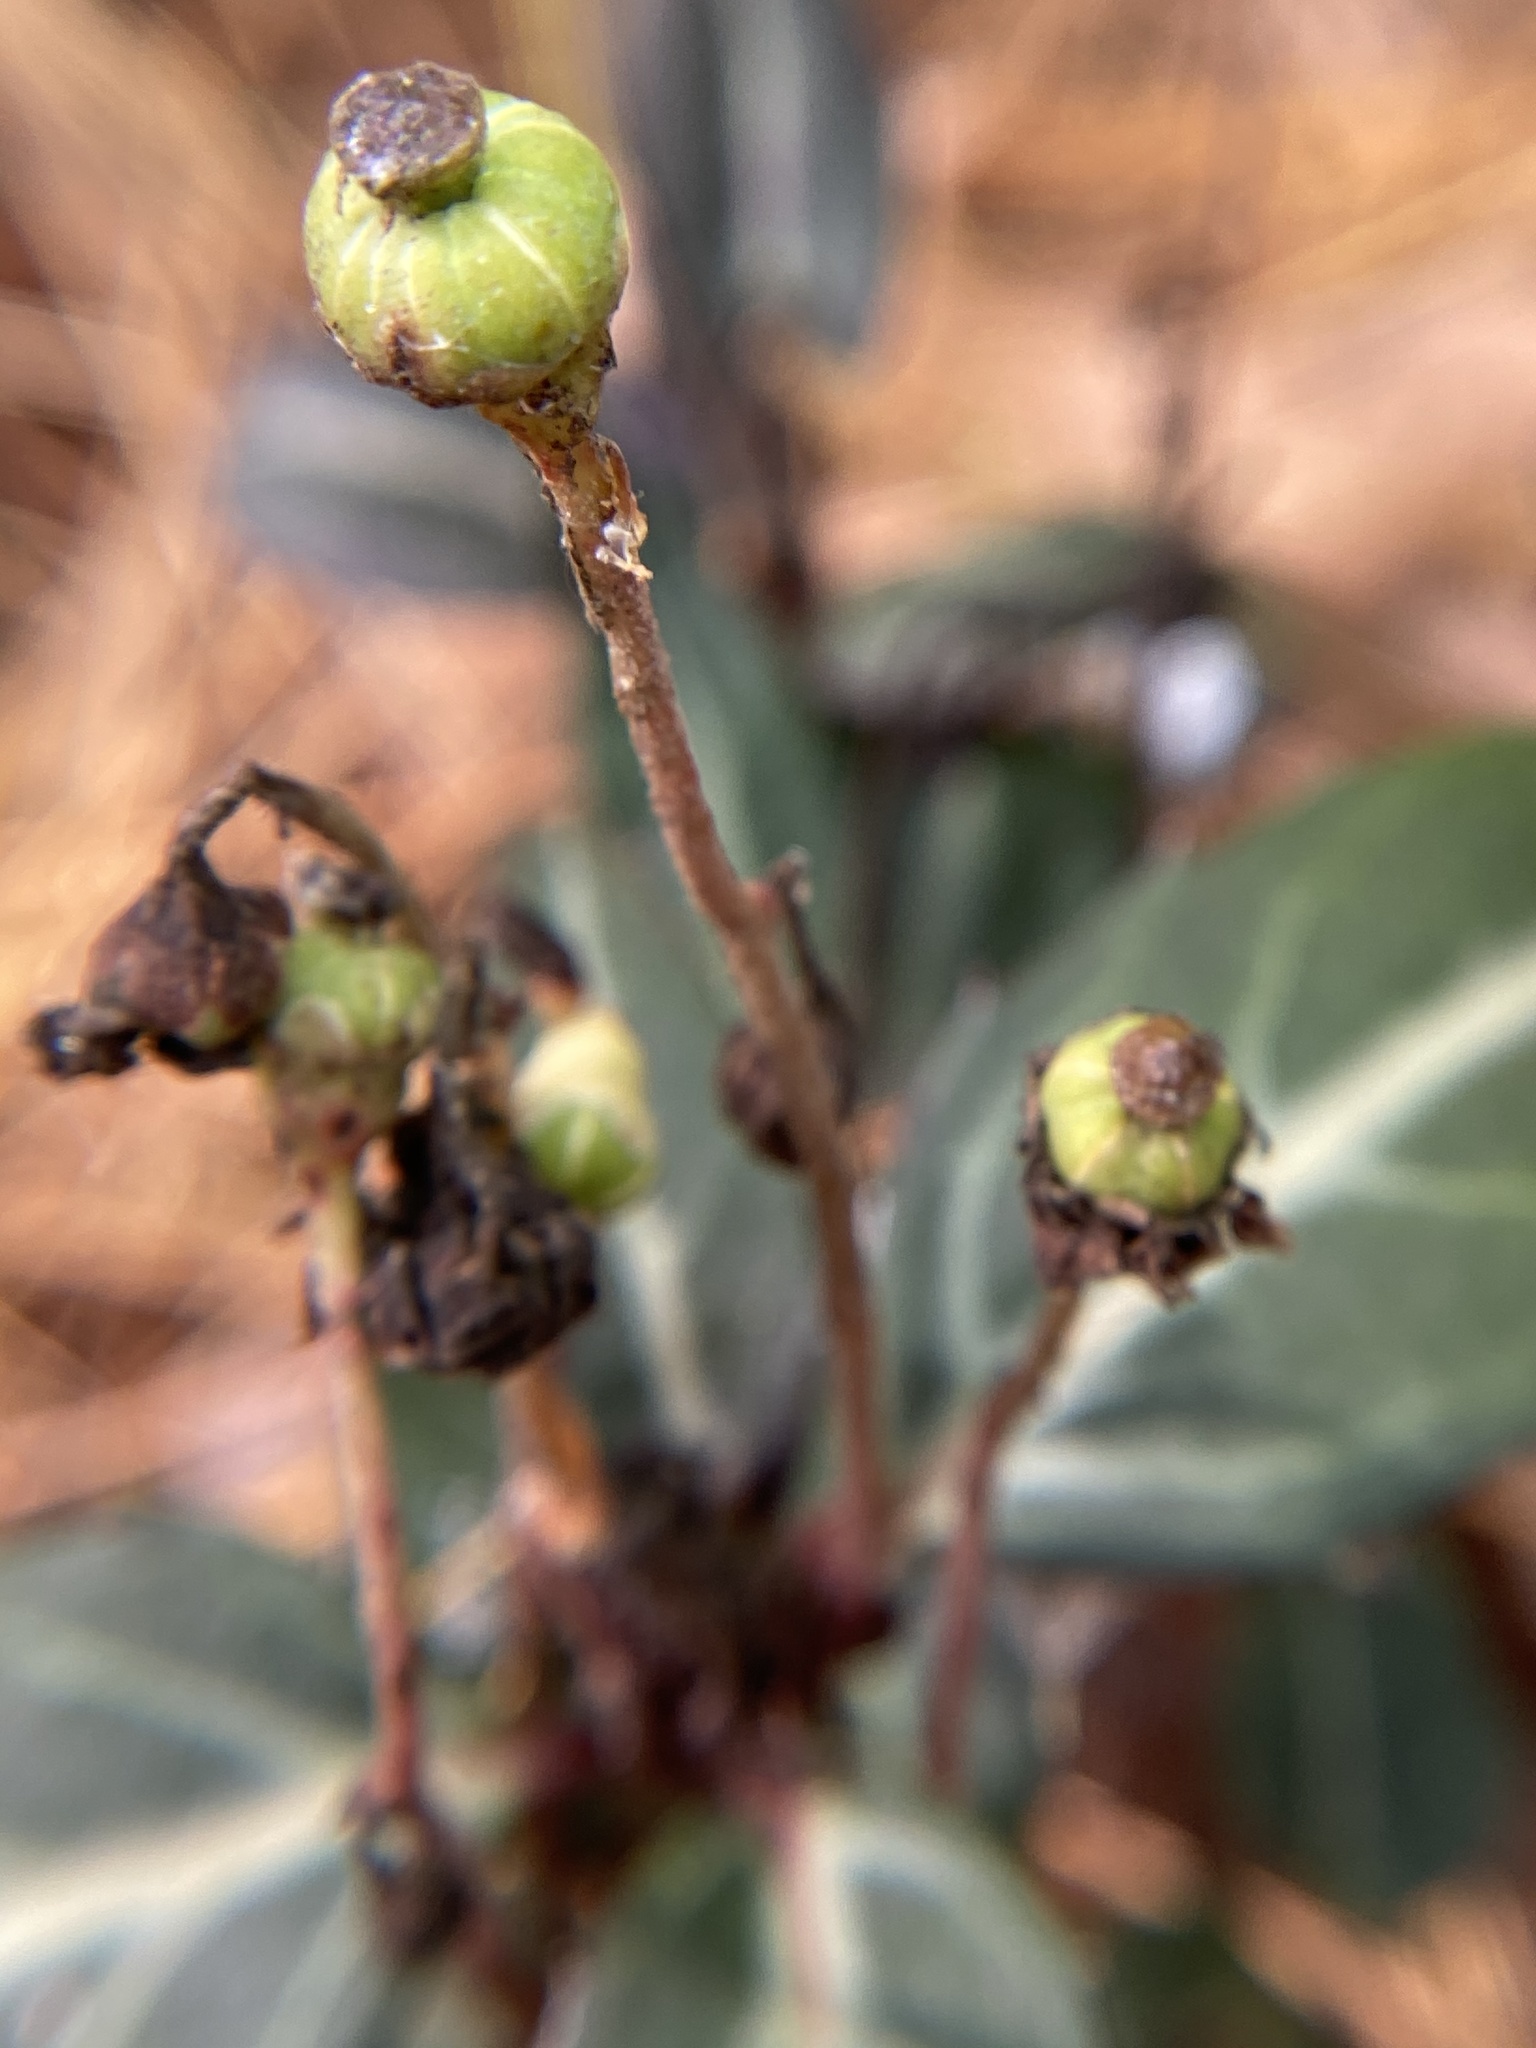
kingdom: Plantae
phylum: Tracheophyta
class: Magnoliopsida
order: Ericales
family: Ericaceae
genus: Chimaphila
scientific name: Chimaphila maculata
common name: Spotted pipsissewa
